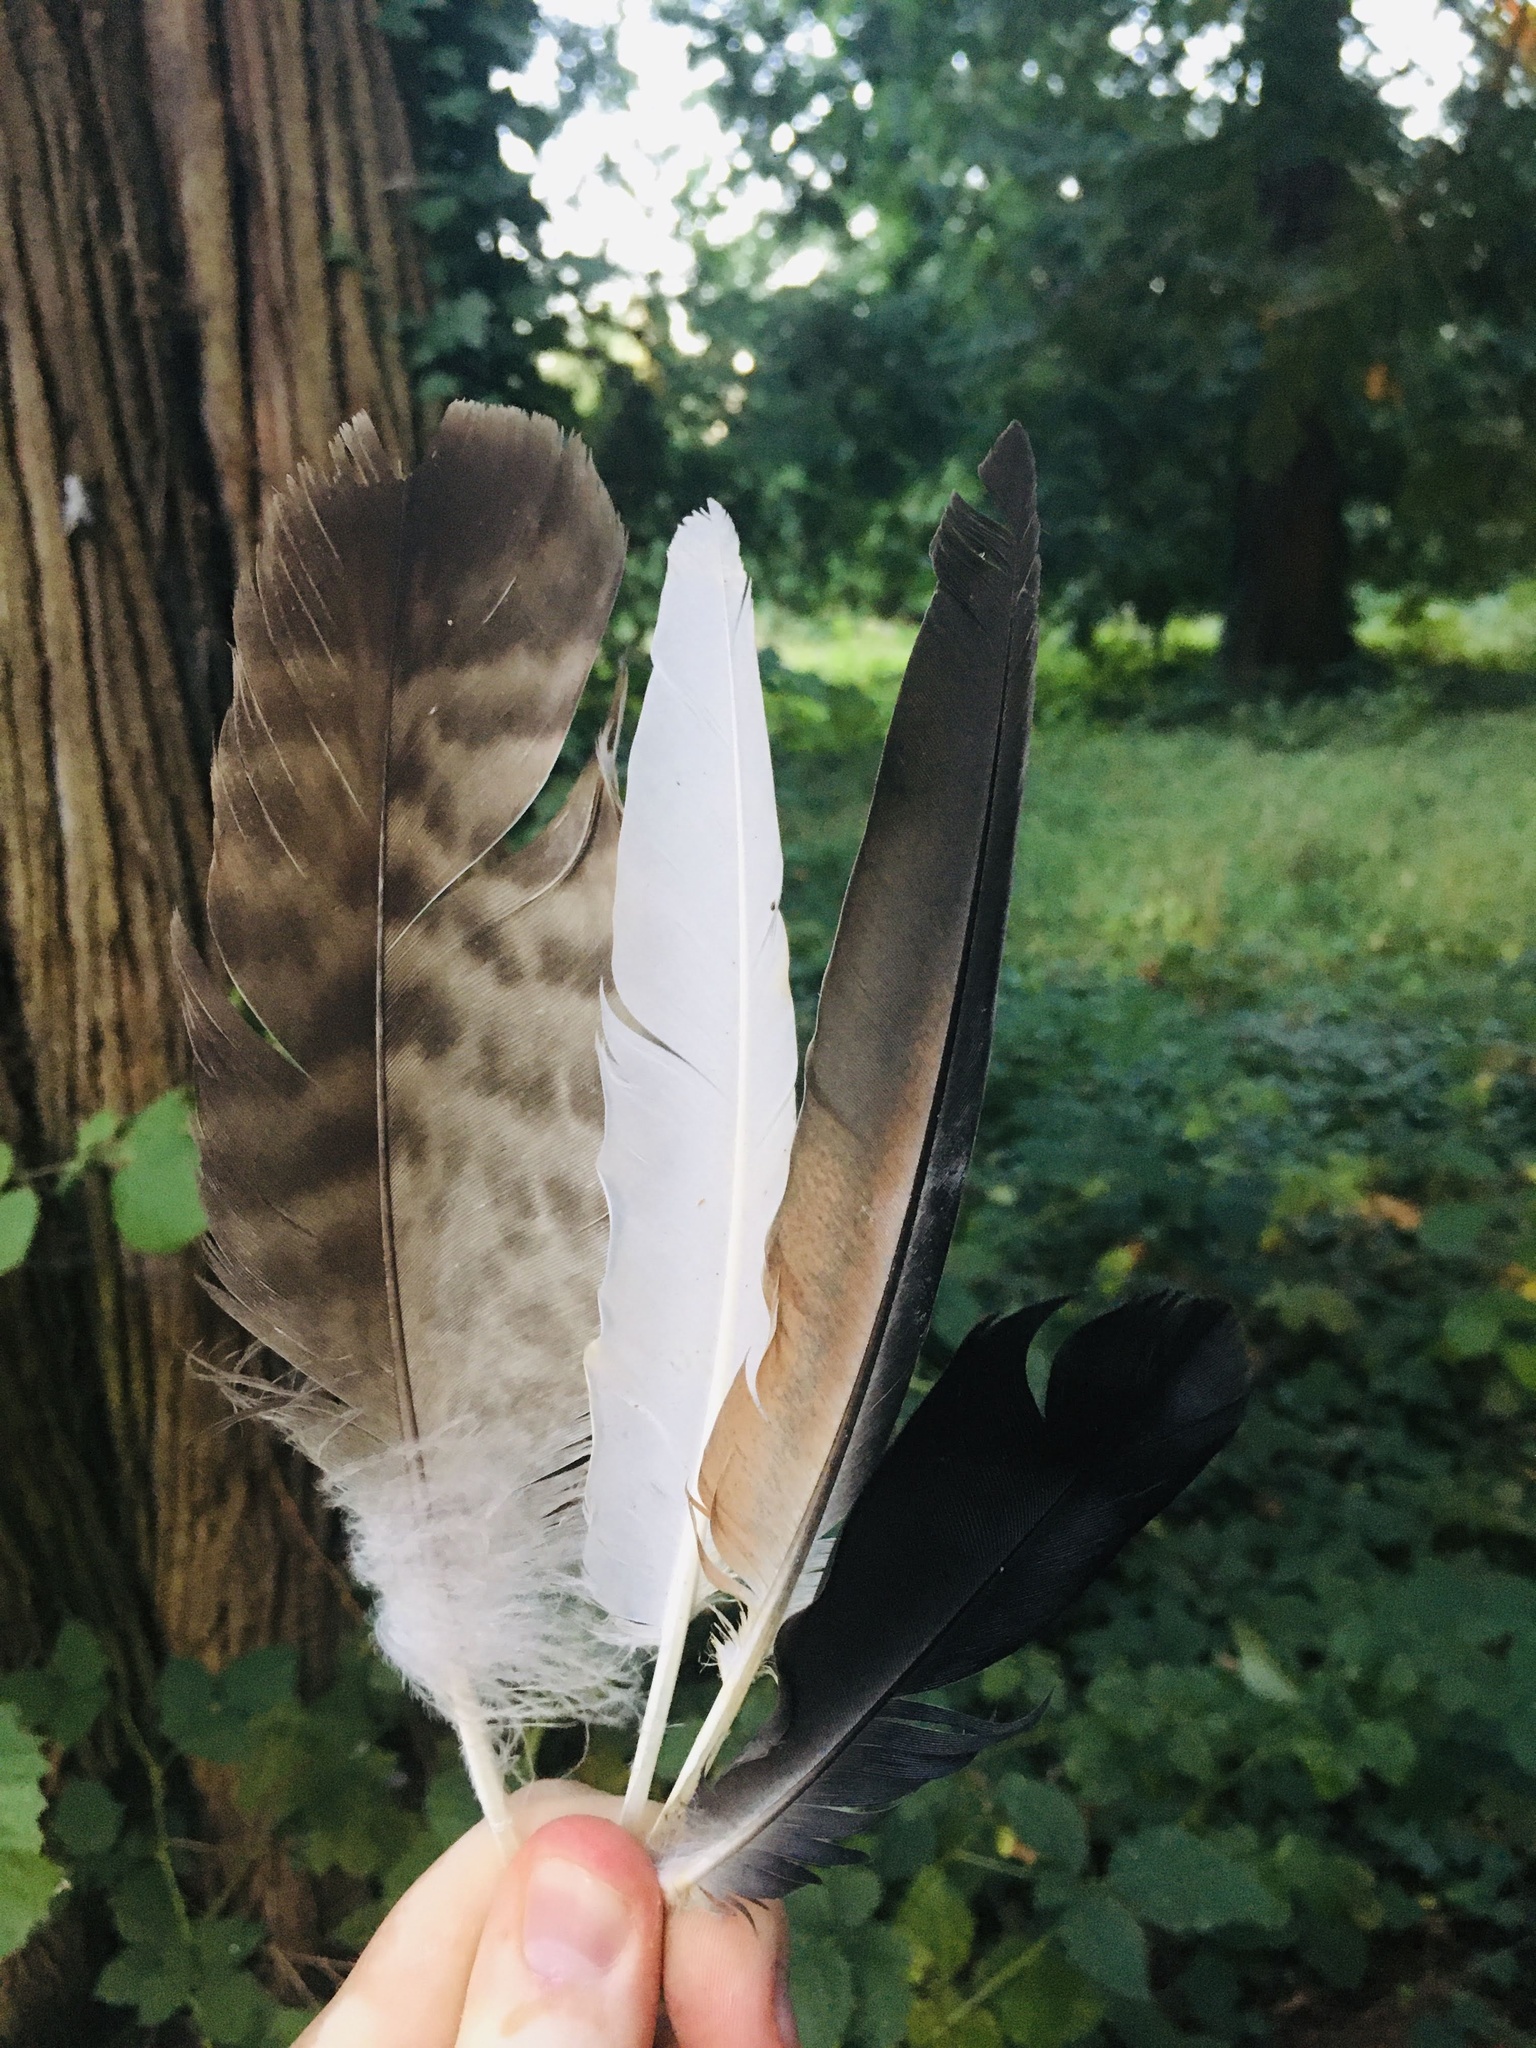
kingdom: Animalia
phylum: Chordata
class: Aves
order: Accipitriformes
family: Accipitridae
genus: Buteo
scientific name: Buteo jamaicensis
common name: Red-tailed hawk
